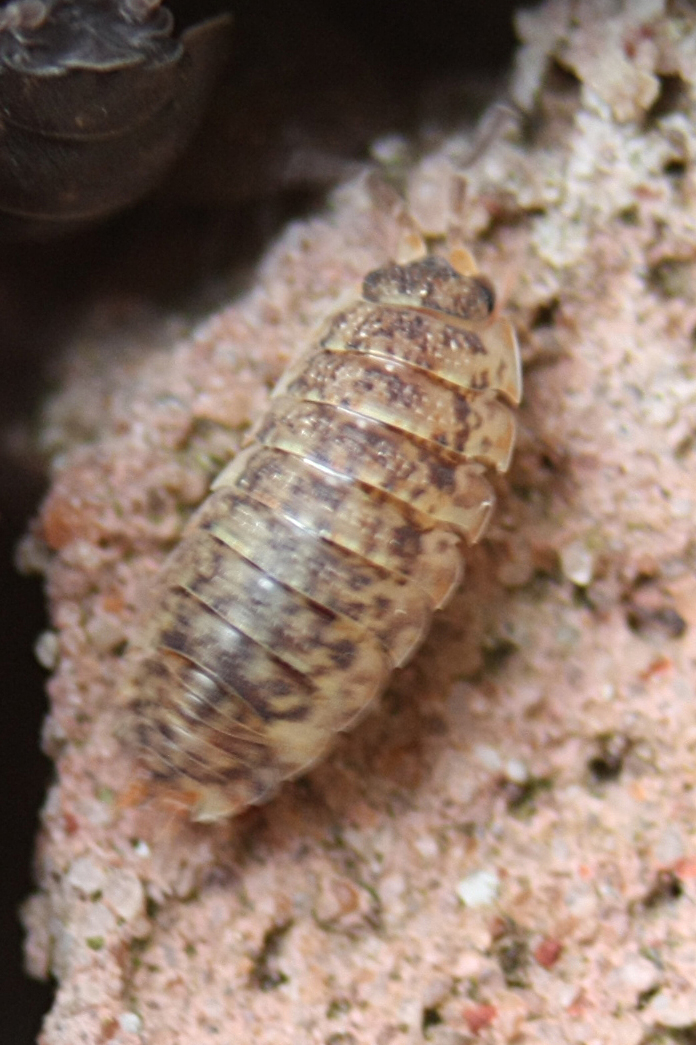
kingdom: Animalia
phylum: Arthropoda
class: Malacostraca
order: Isopoda
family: Porcellionidae
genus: Porcellio
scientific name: Porcellio scaber
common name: Common rough woodlouse
